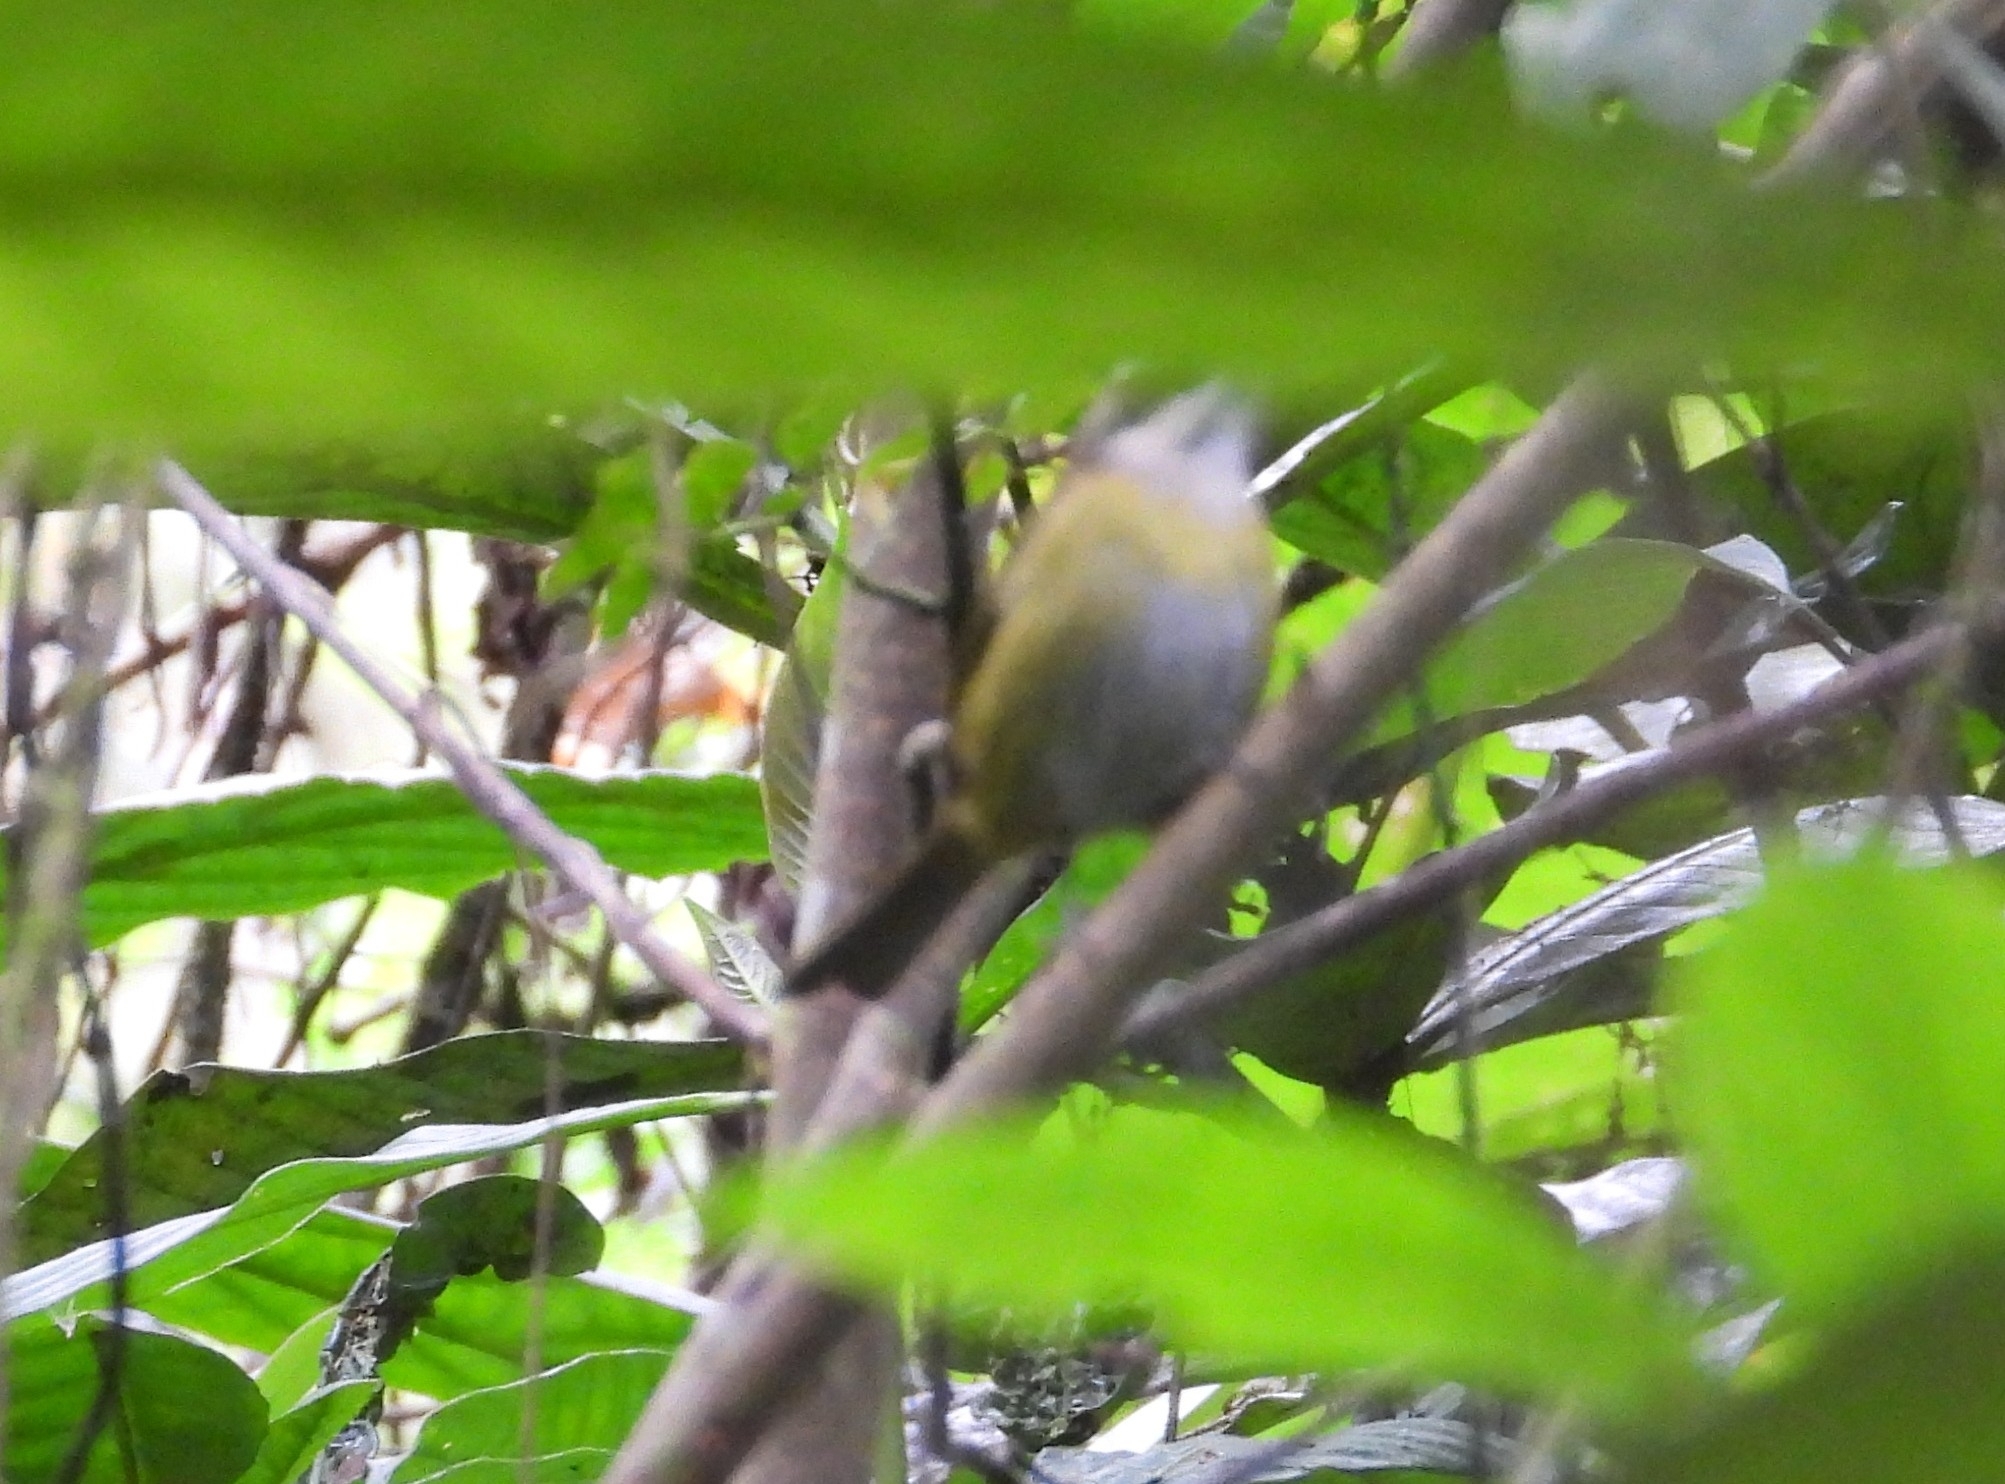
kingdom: Animalia
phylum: Chordata
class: Aves
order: Passeriformes
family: Passerellidae
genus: Chlorospingus
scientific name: Chlorospingus flavopectus
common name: Common chlorospingus
